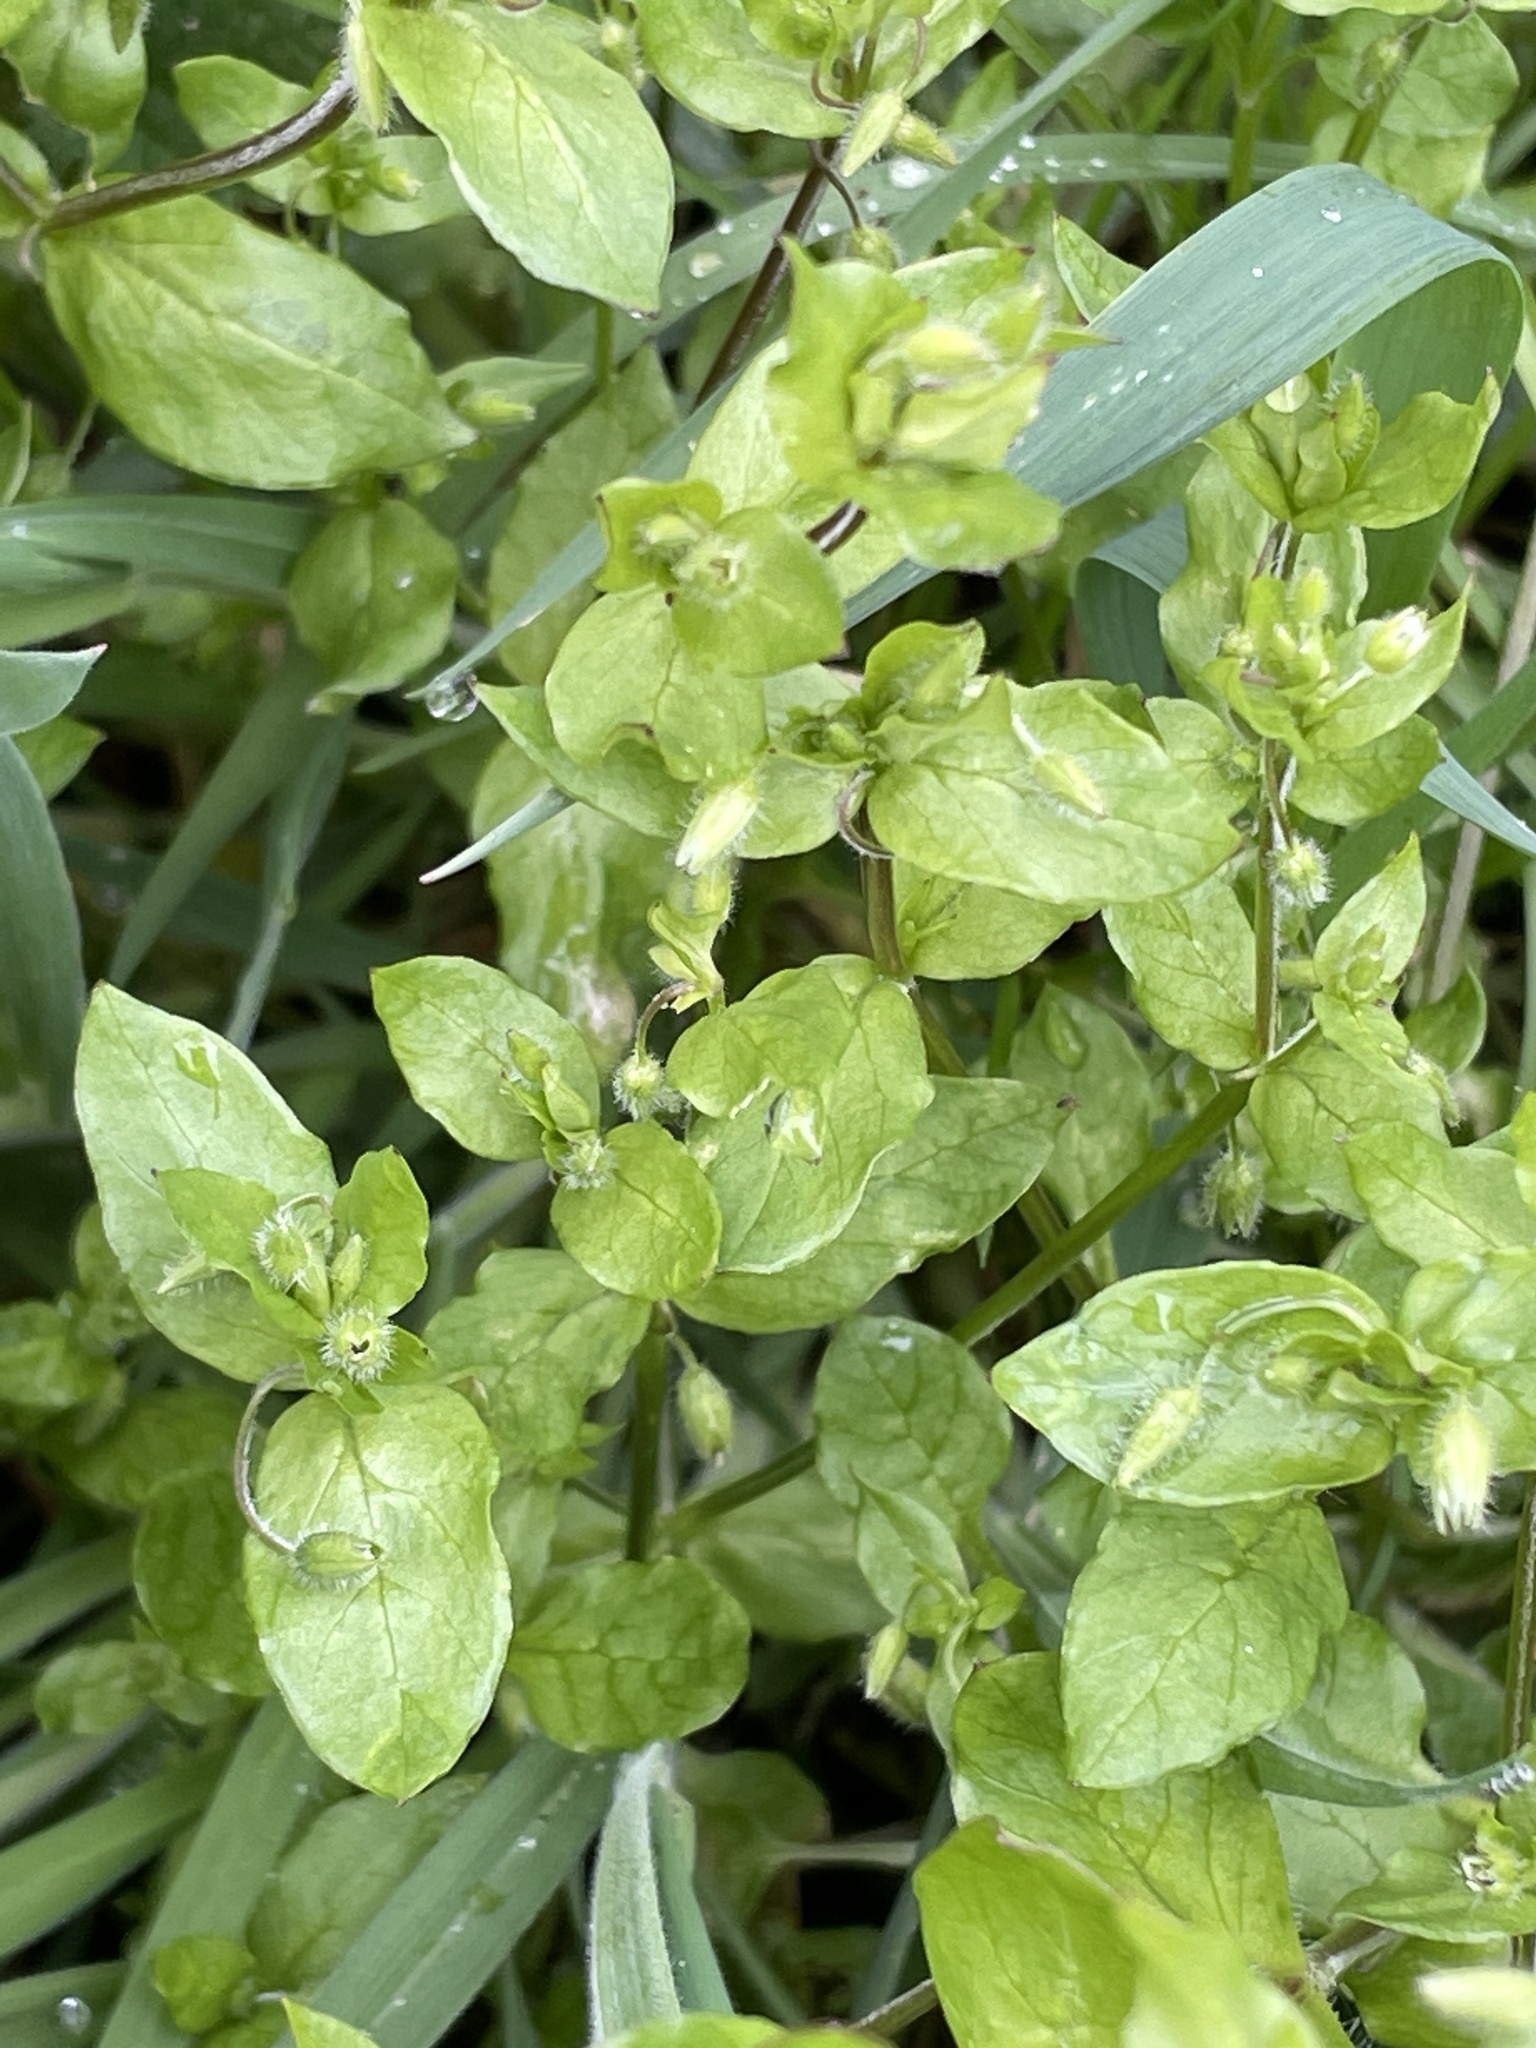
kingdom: Plantae
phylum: Tracheophyta
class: Magnoliopsida
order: Caryophyllales
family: Caryophyllaceae
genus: Stellaria
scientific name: Stellaria media
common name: Common chickweed
